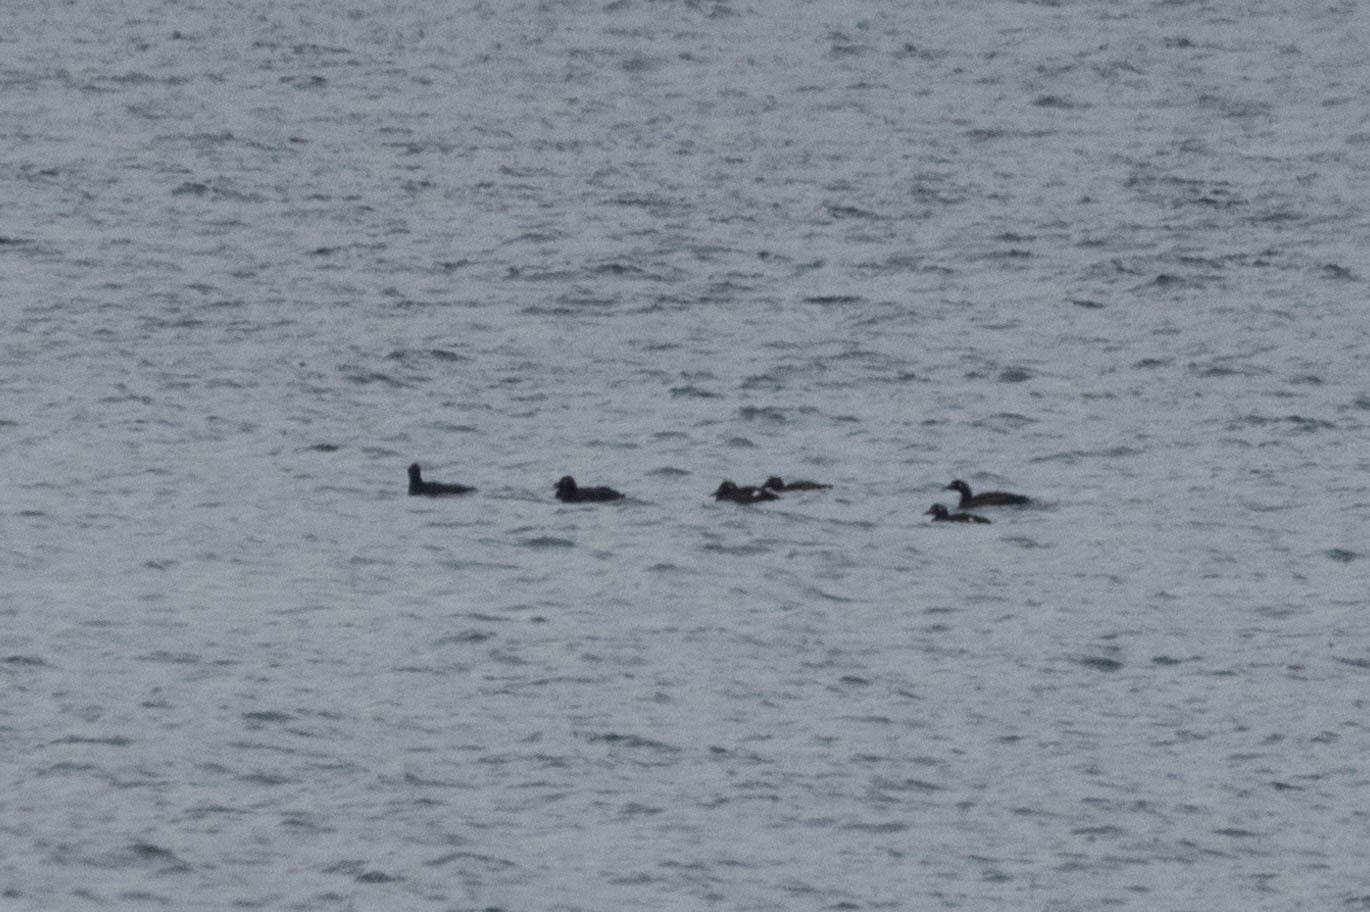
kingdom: Animalia
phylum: Chordata
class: Aves
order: Anseriformes
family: Anatidae
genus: Melanitta
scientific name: Melanitta deglandi
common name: White-winged scoter
